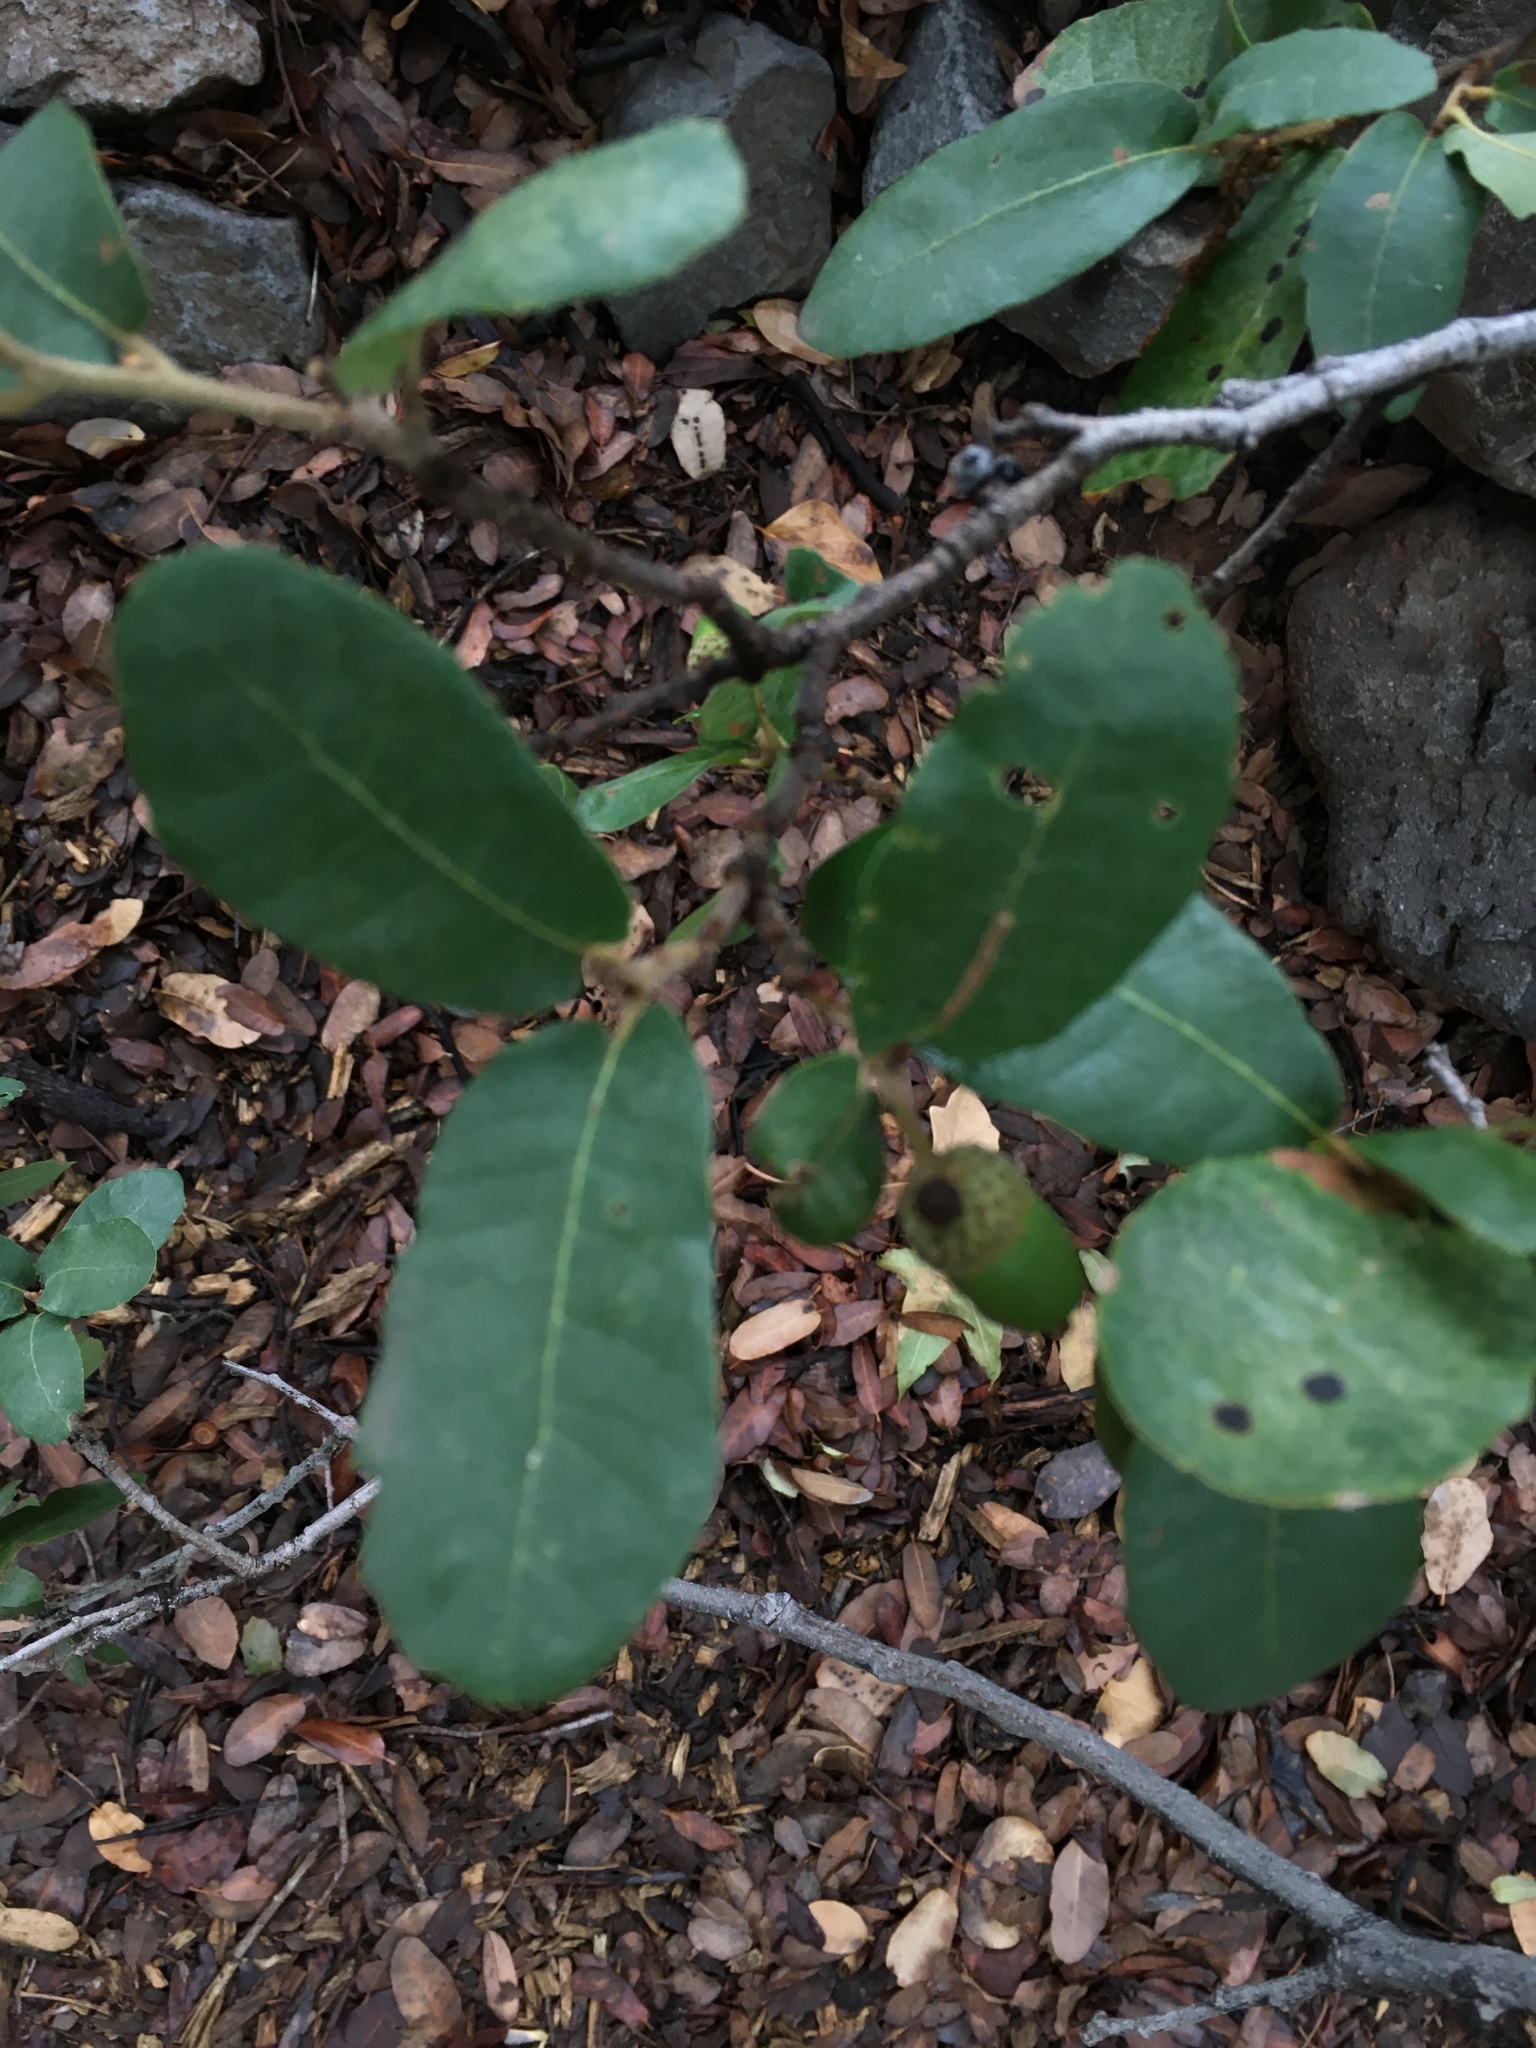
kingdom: Plantae
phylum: Tracheophyta
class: Magnoliopsida
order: Fagales
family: Fagaceae
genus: Quercus
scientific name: Quercus arizonica
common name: Arizona white oak
